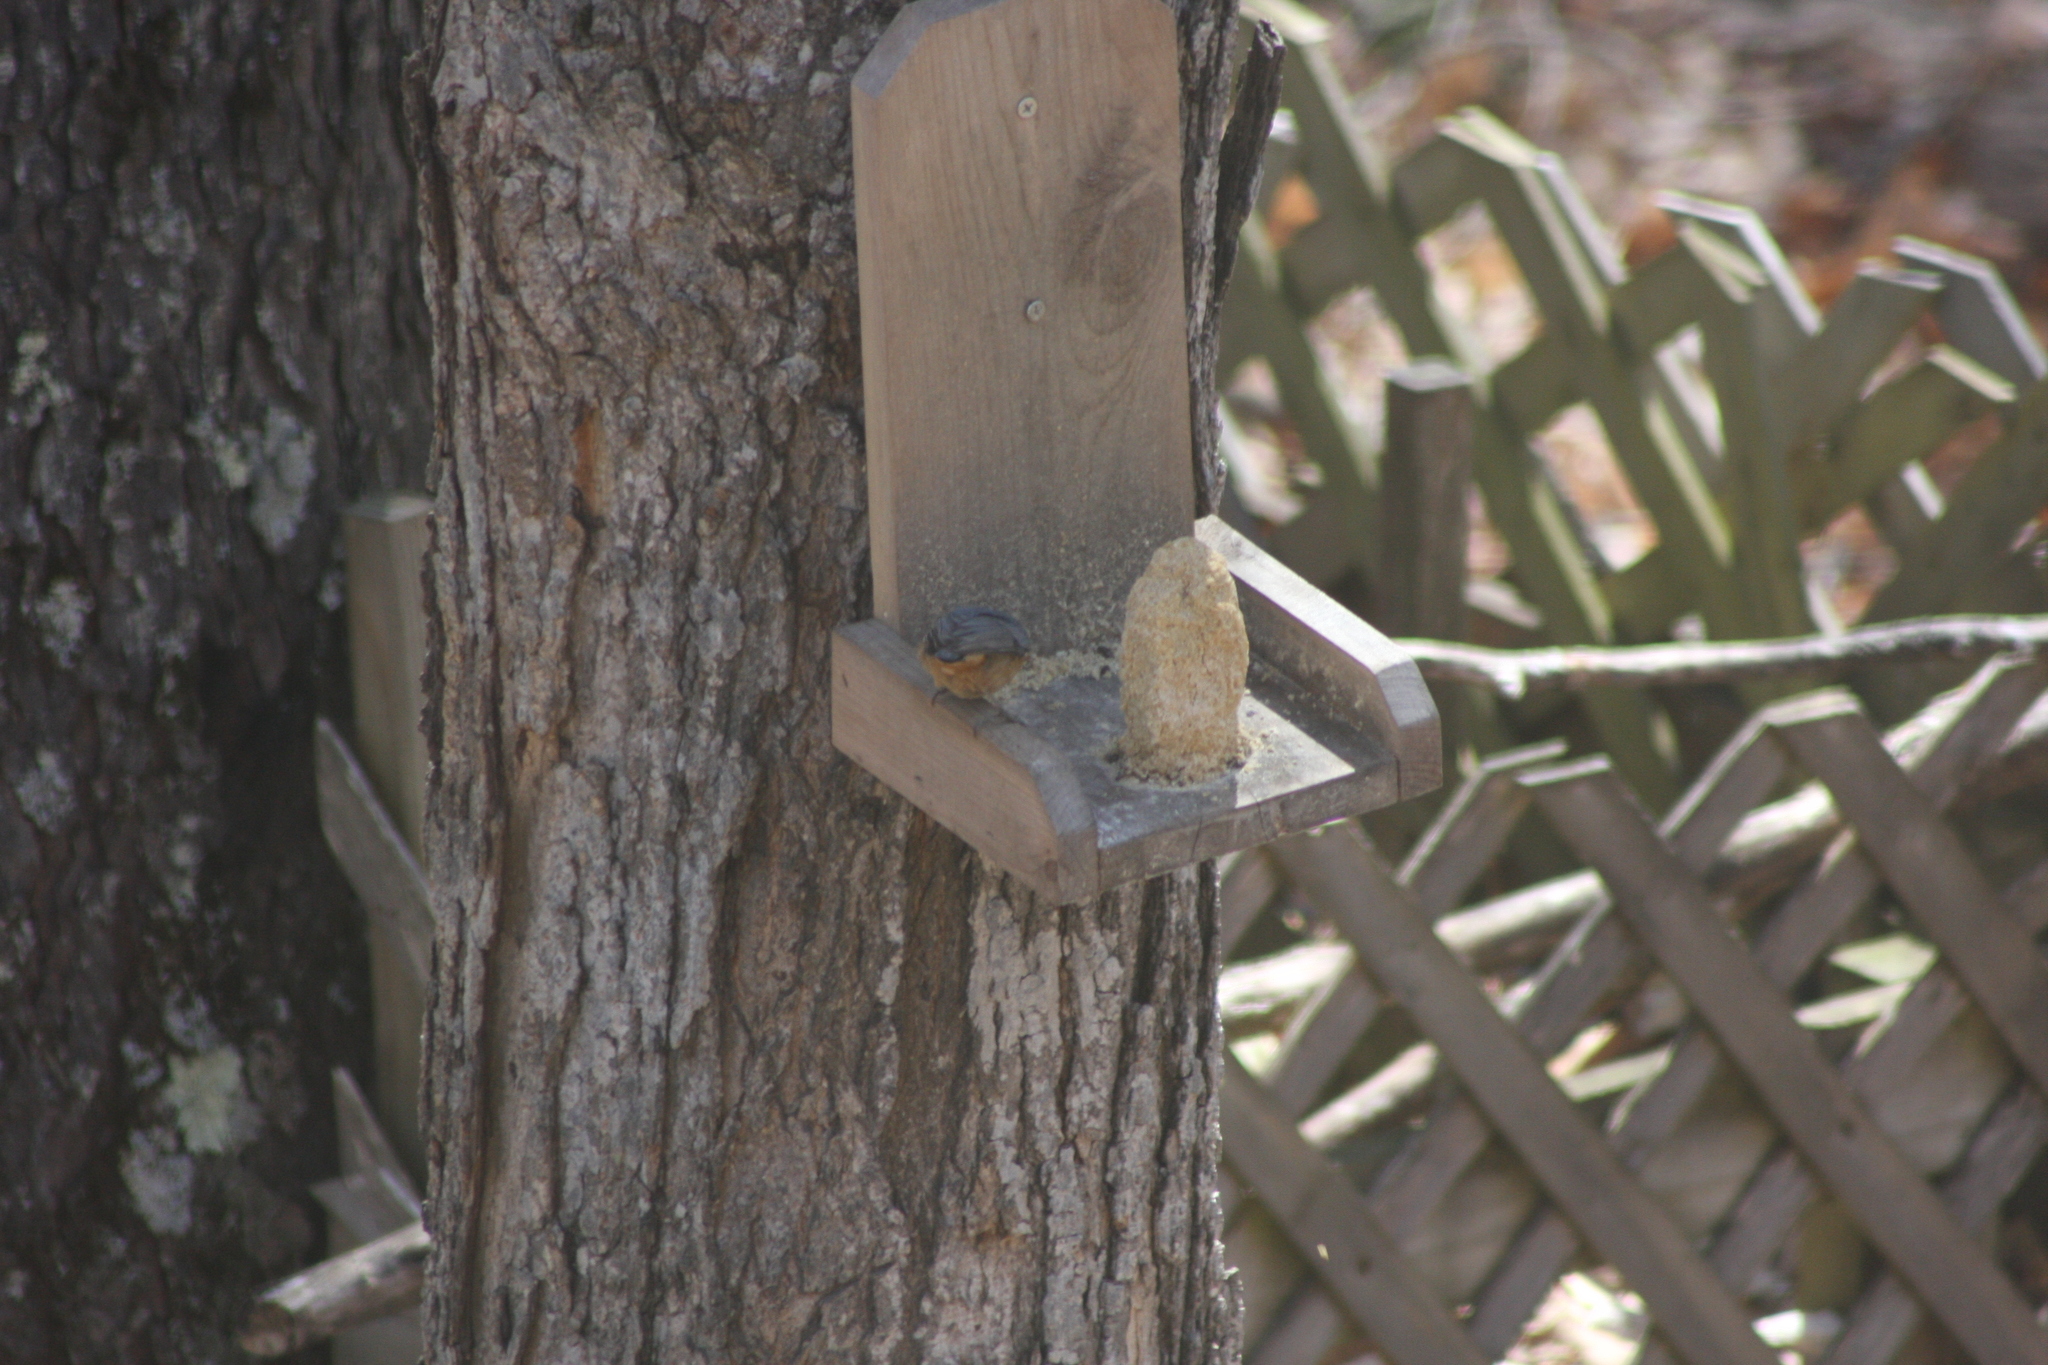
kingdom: Animalia
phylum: Chordata
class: Aves
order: Passeriformes
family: Sittidae
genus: Sitta
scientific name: Sitta canadensis
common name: Red-breasted nuthatch
